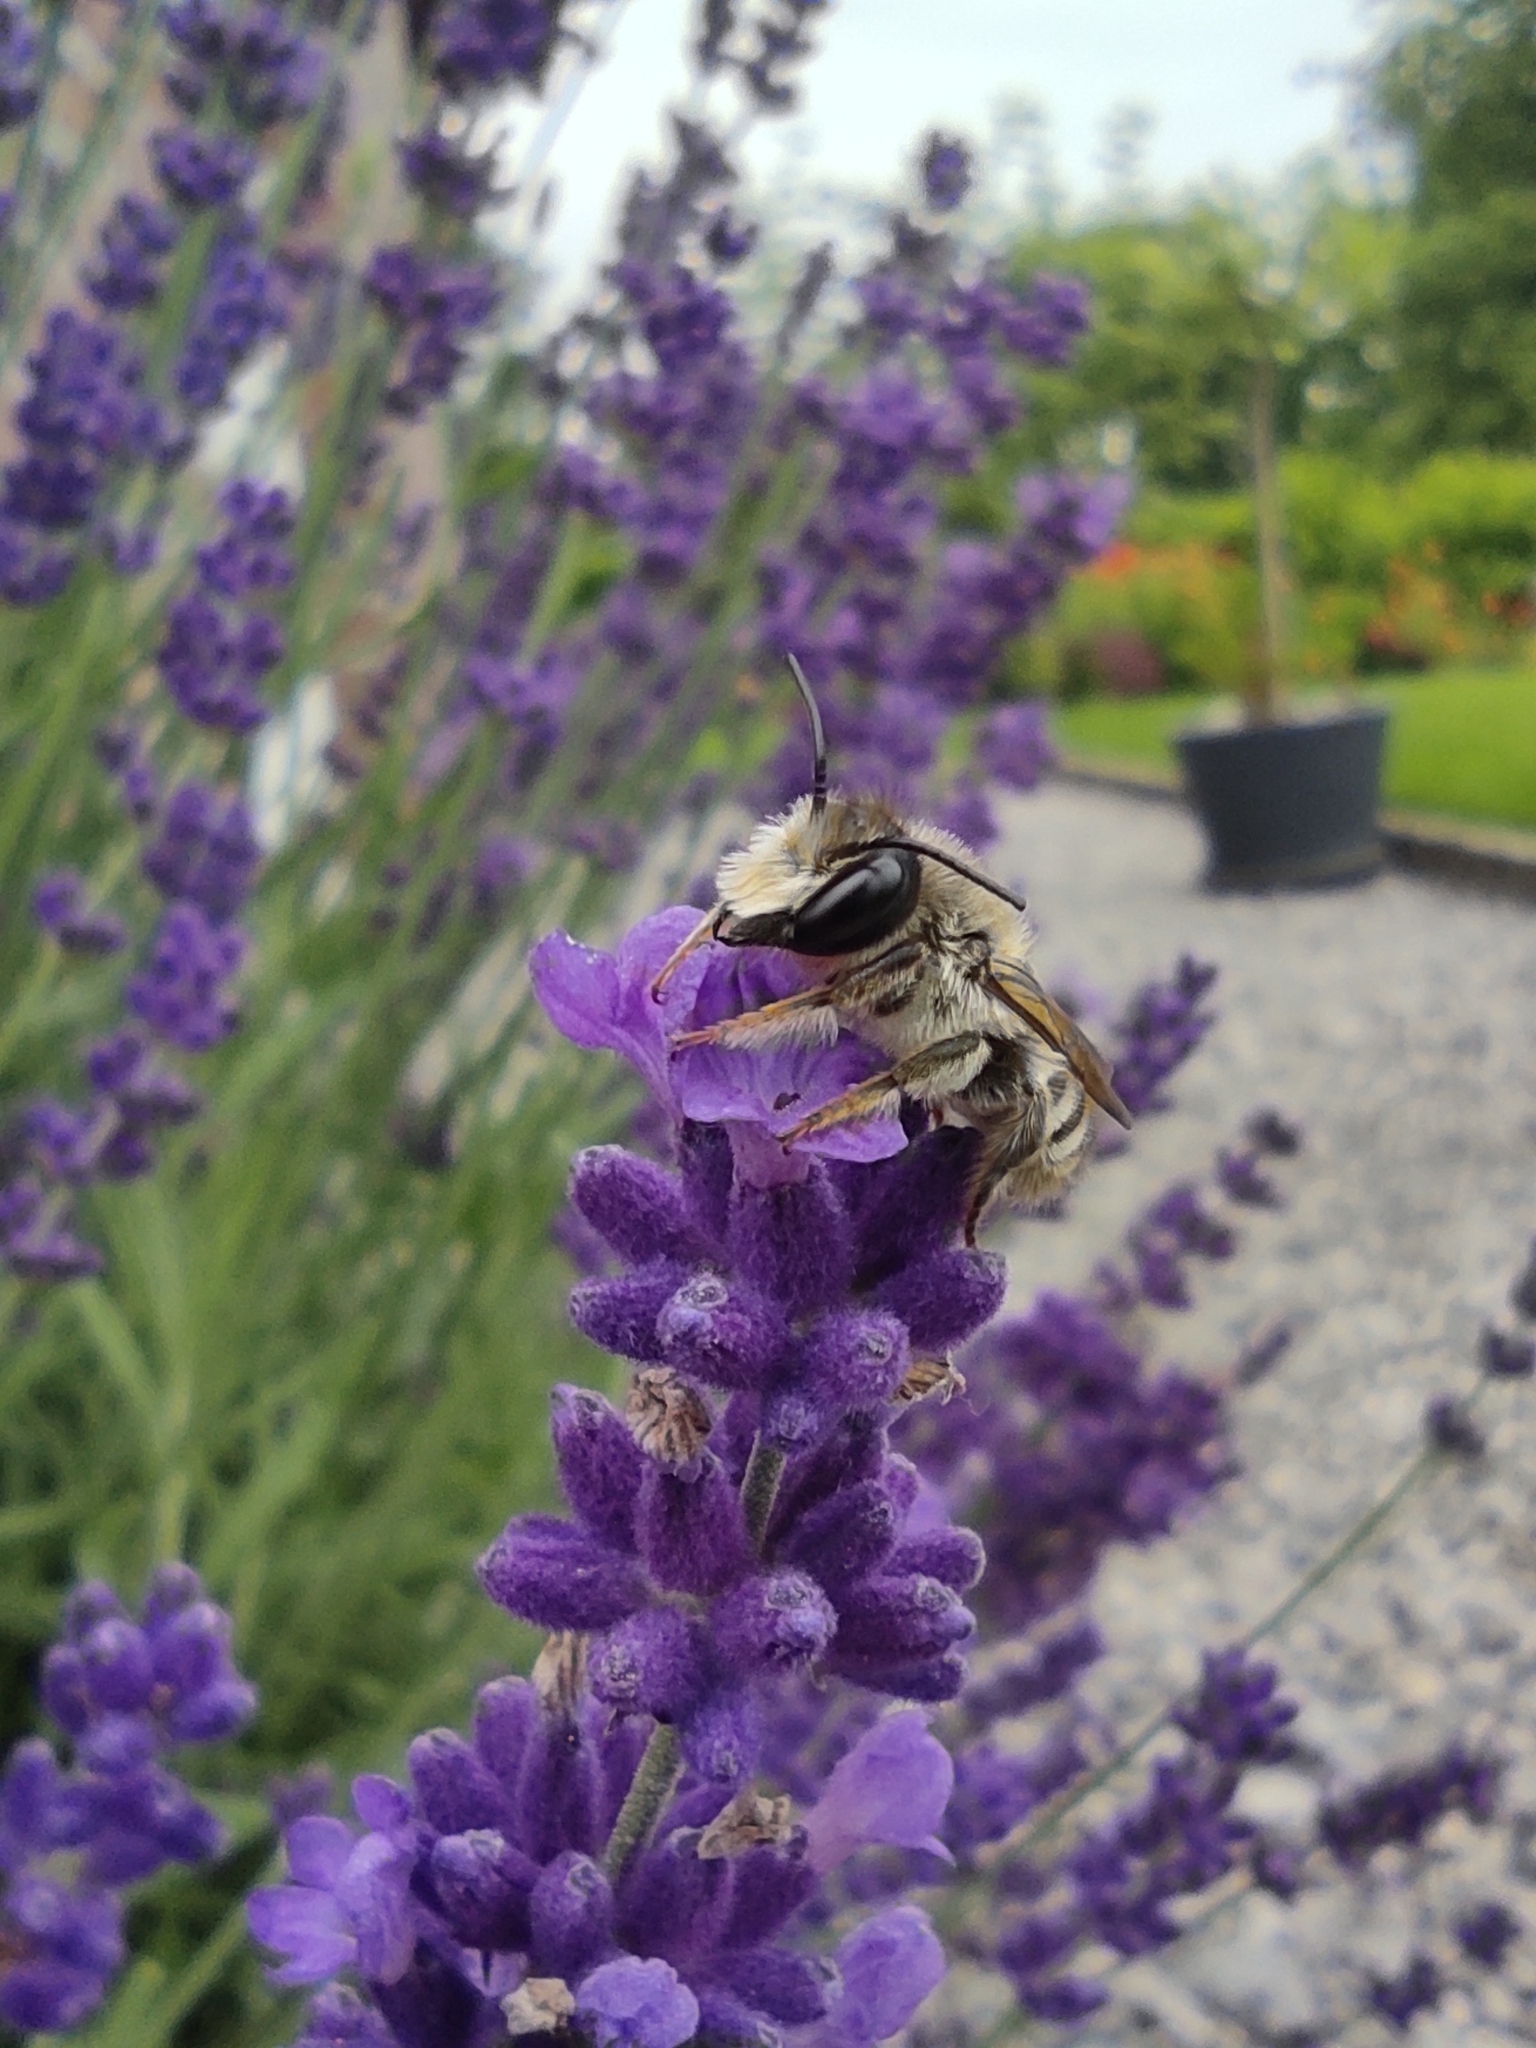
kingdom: Animalia
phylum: Arthropoda
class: Insecta
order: Hymenoptera
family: Megachilidae
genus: Megachile
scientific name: Megachile ericetorum
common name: Leafcutter bee
